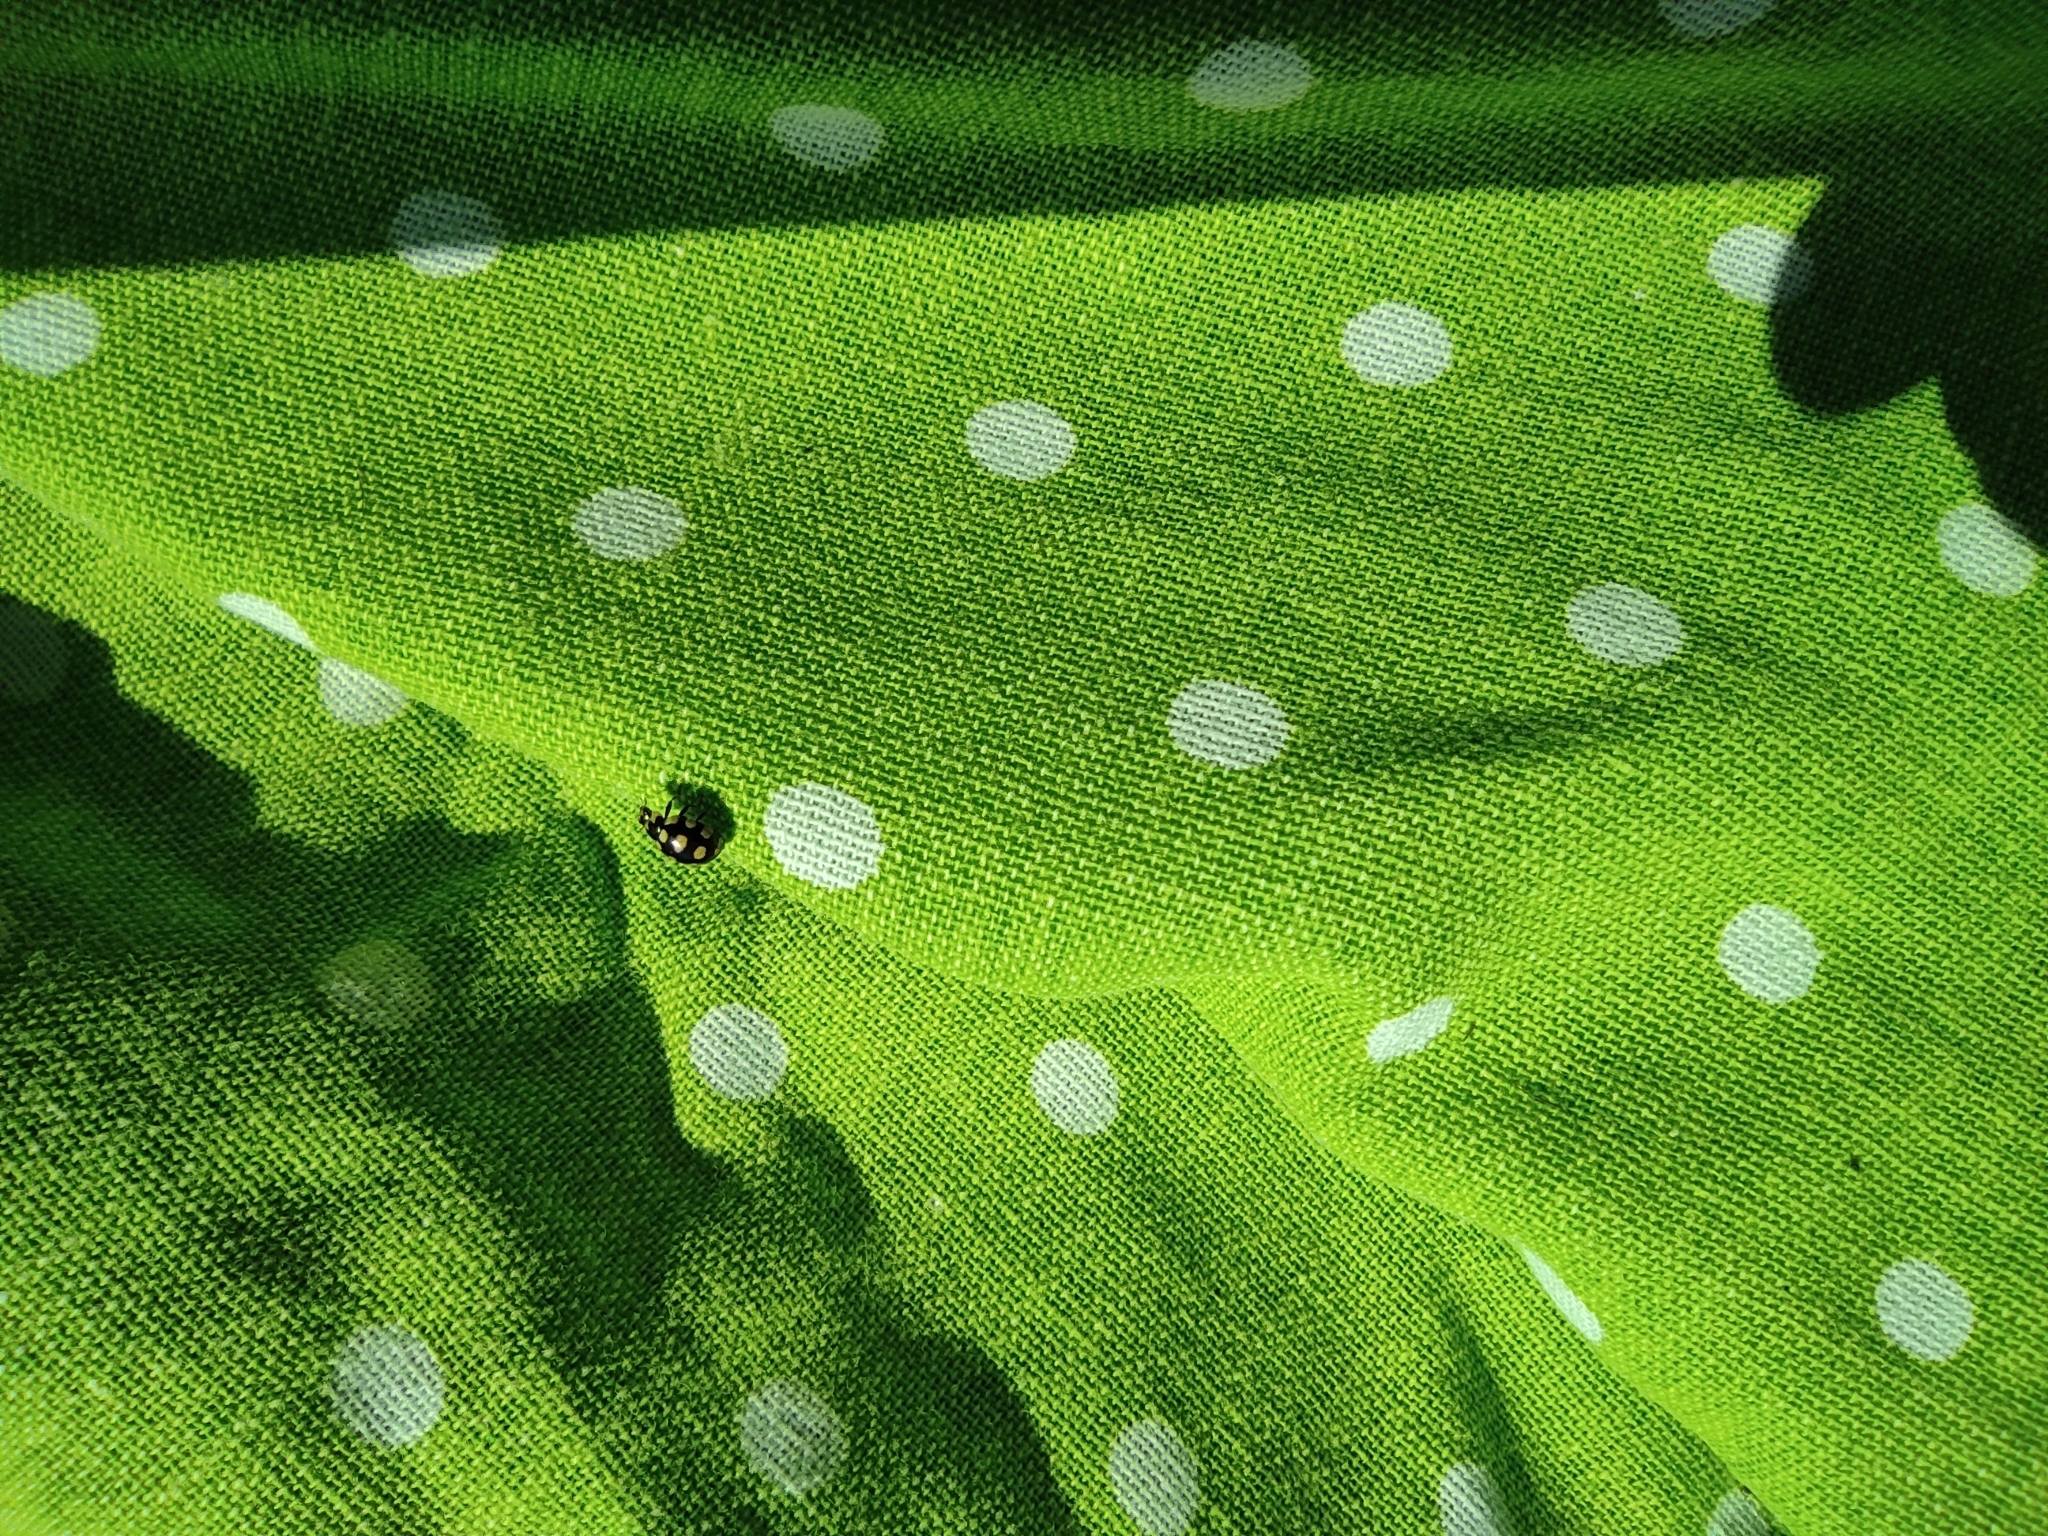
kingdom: Animalia
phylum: Arthropoda
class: Insecta
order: Coleoptera
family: Coccinellidae
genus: Coccinula
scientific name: Coccinula quatuordecimpustulata
